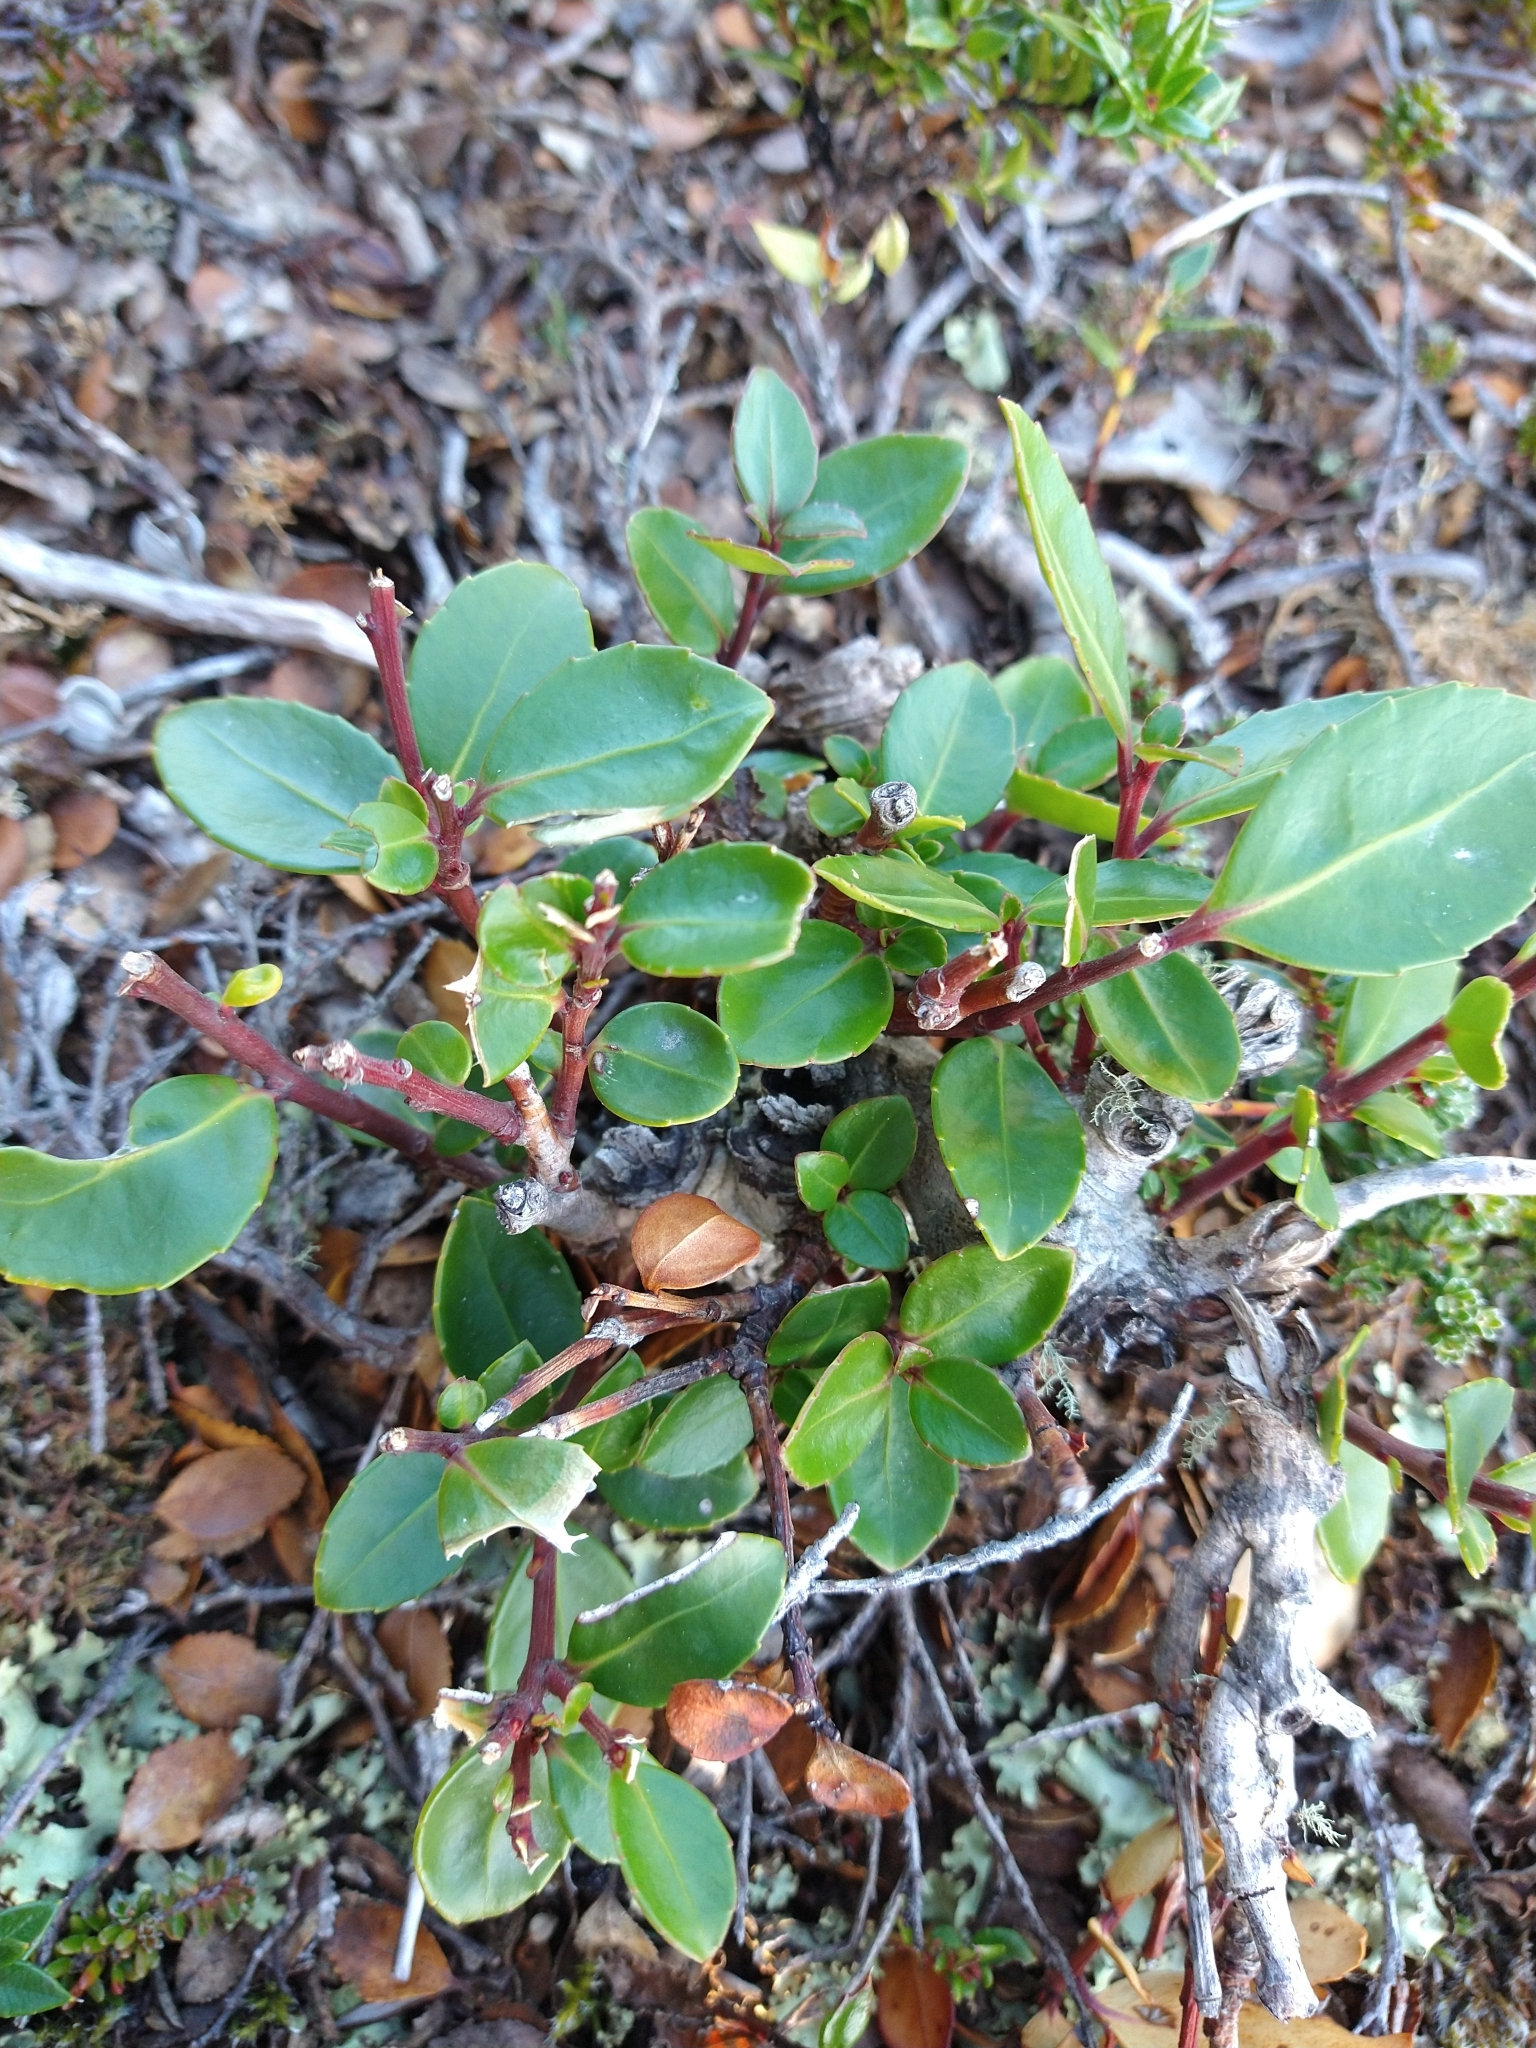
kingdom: Plantae
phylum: Tracheophyta
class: Magnoliopsida
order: Celastrales
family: Celastraceae
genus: Maytenus
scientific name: Maytenus magellanica
